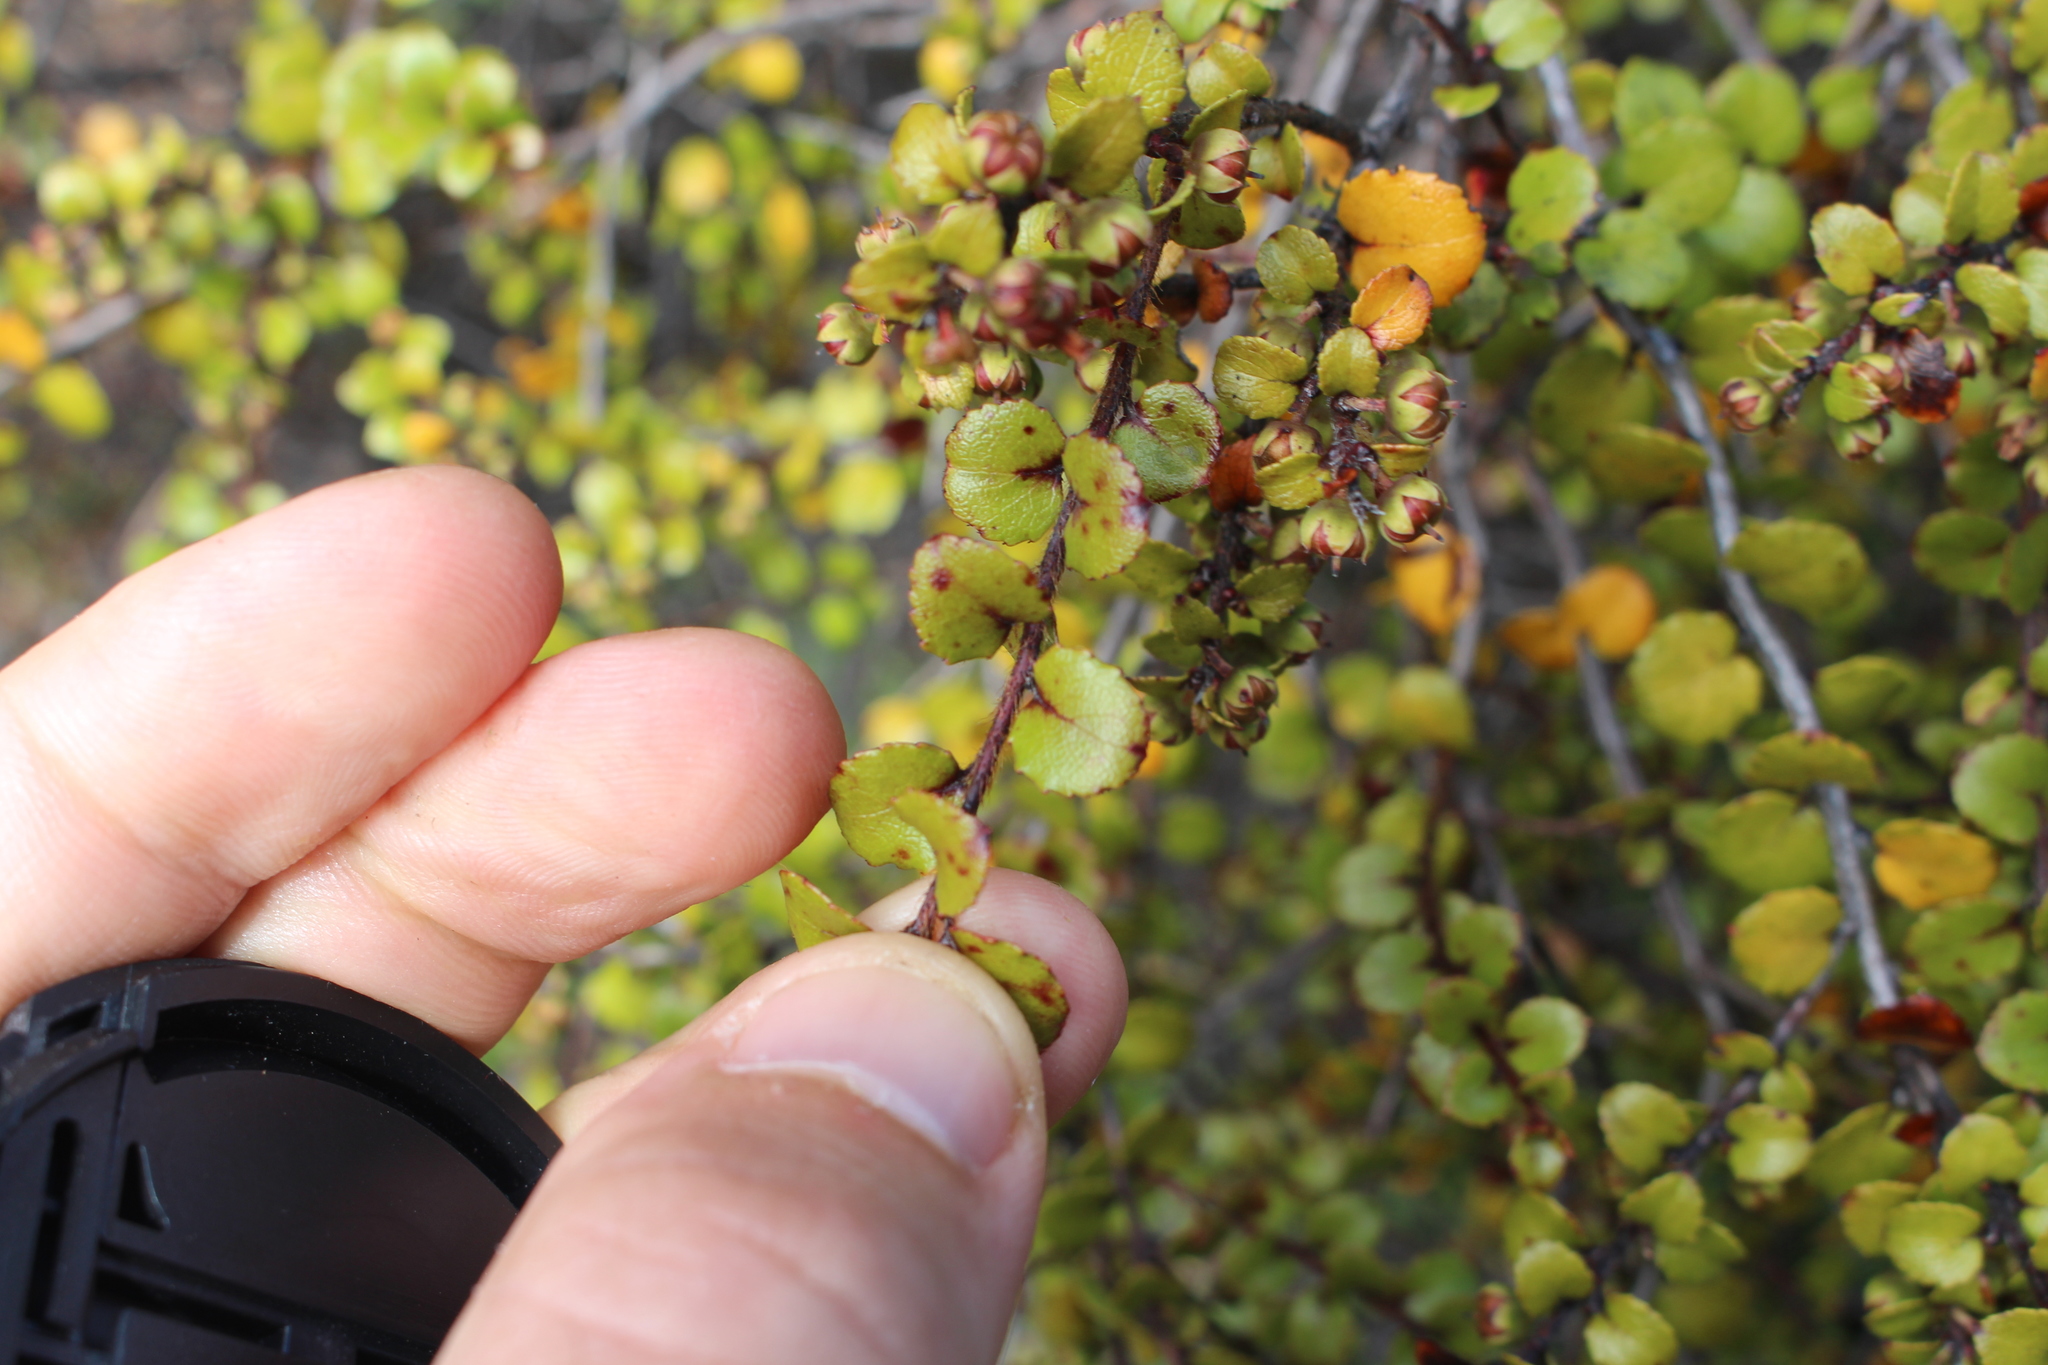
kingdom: Plantae
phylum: Tracheophyta
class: Magnoliopsida
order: Ericales
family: Ericaceae
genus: Gaultheria
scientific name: Gaultheria antipoda
